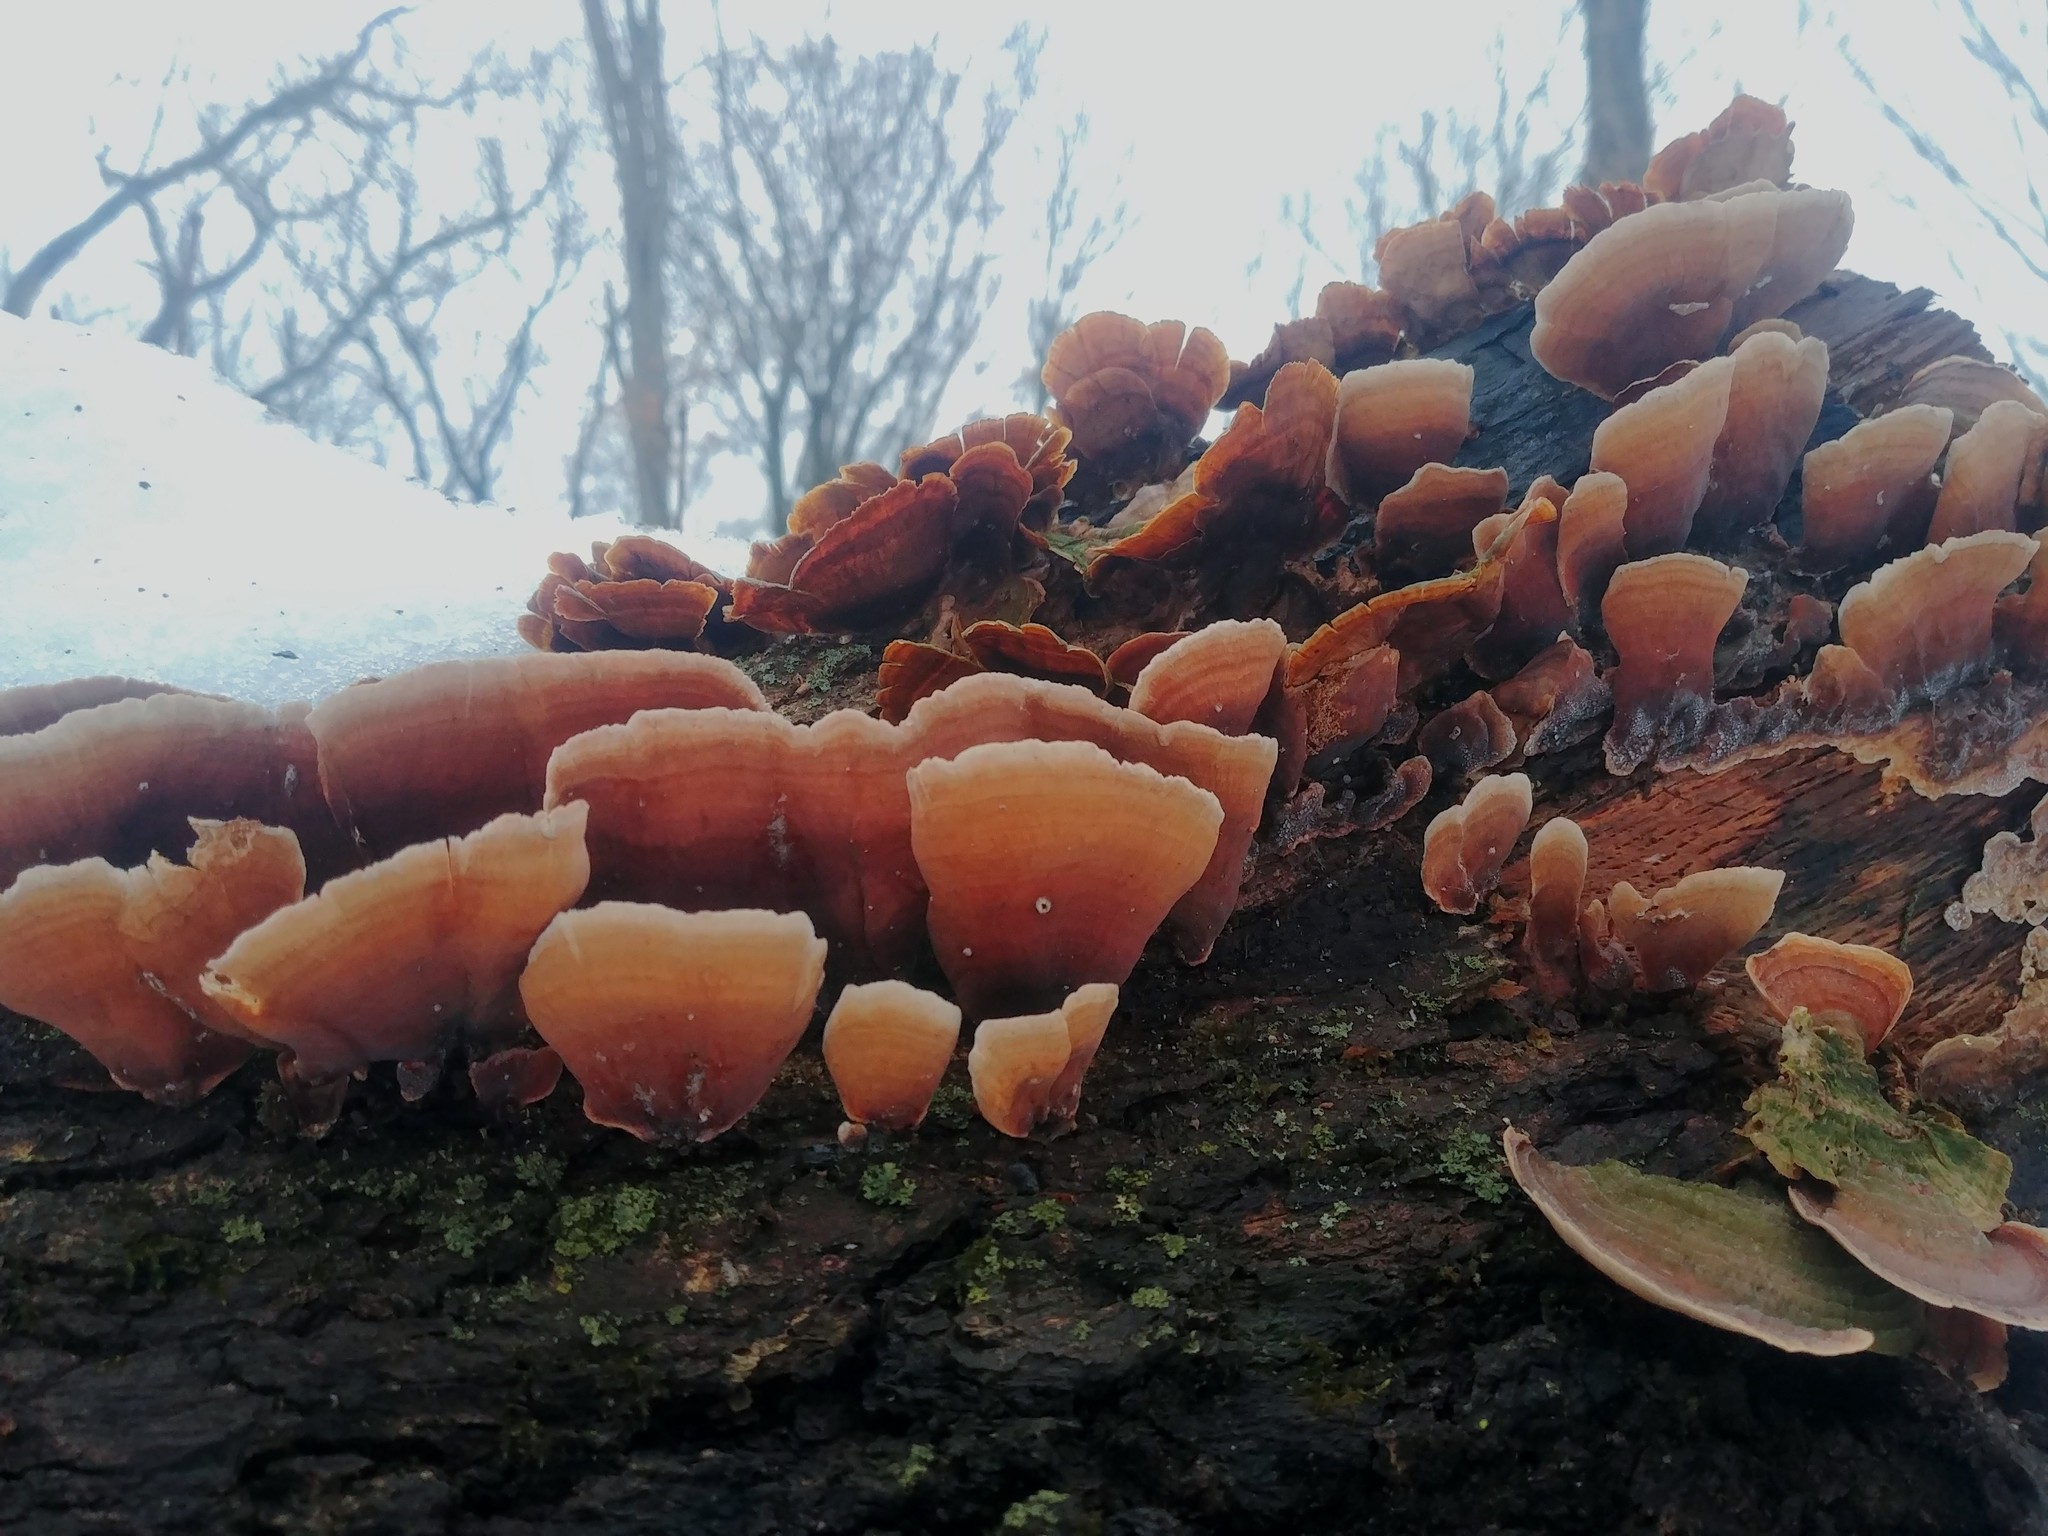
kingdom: Fungi
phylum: Basidiomycota
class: Agaricomycetes
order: Russulales
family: Stereaceae
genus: Stereum
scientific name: Stereum ostrea
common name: False turkeytail
